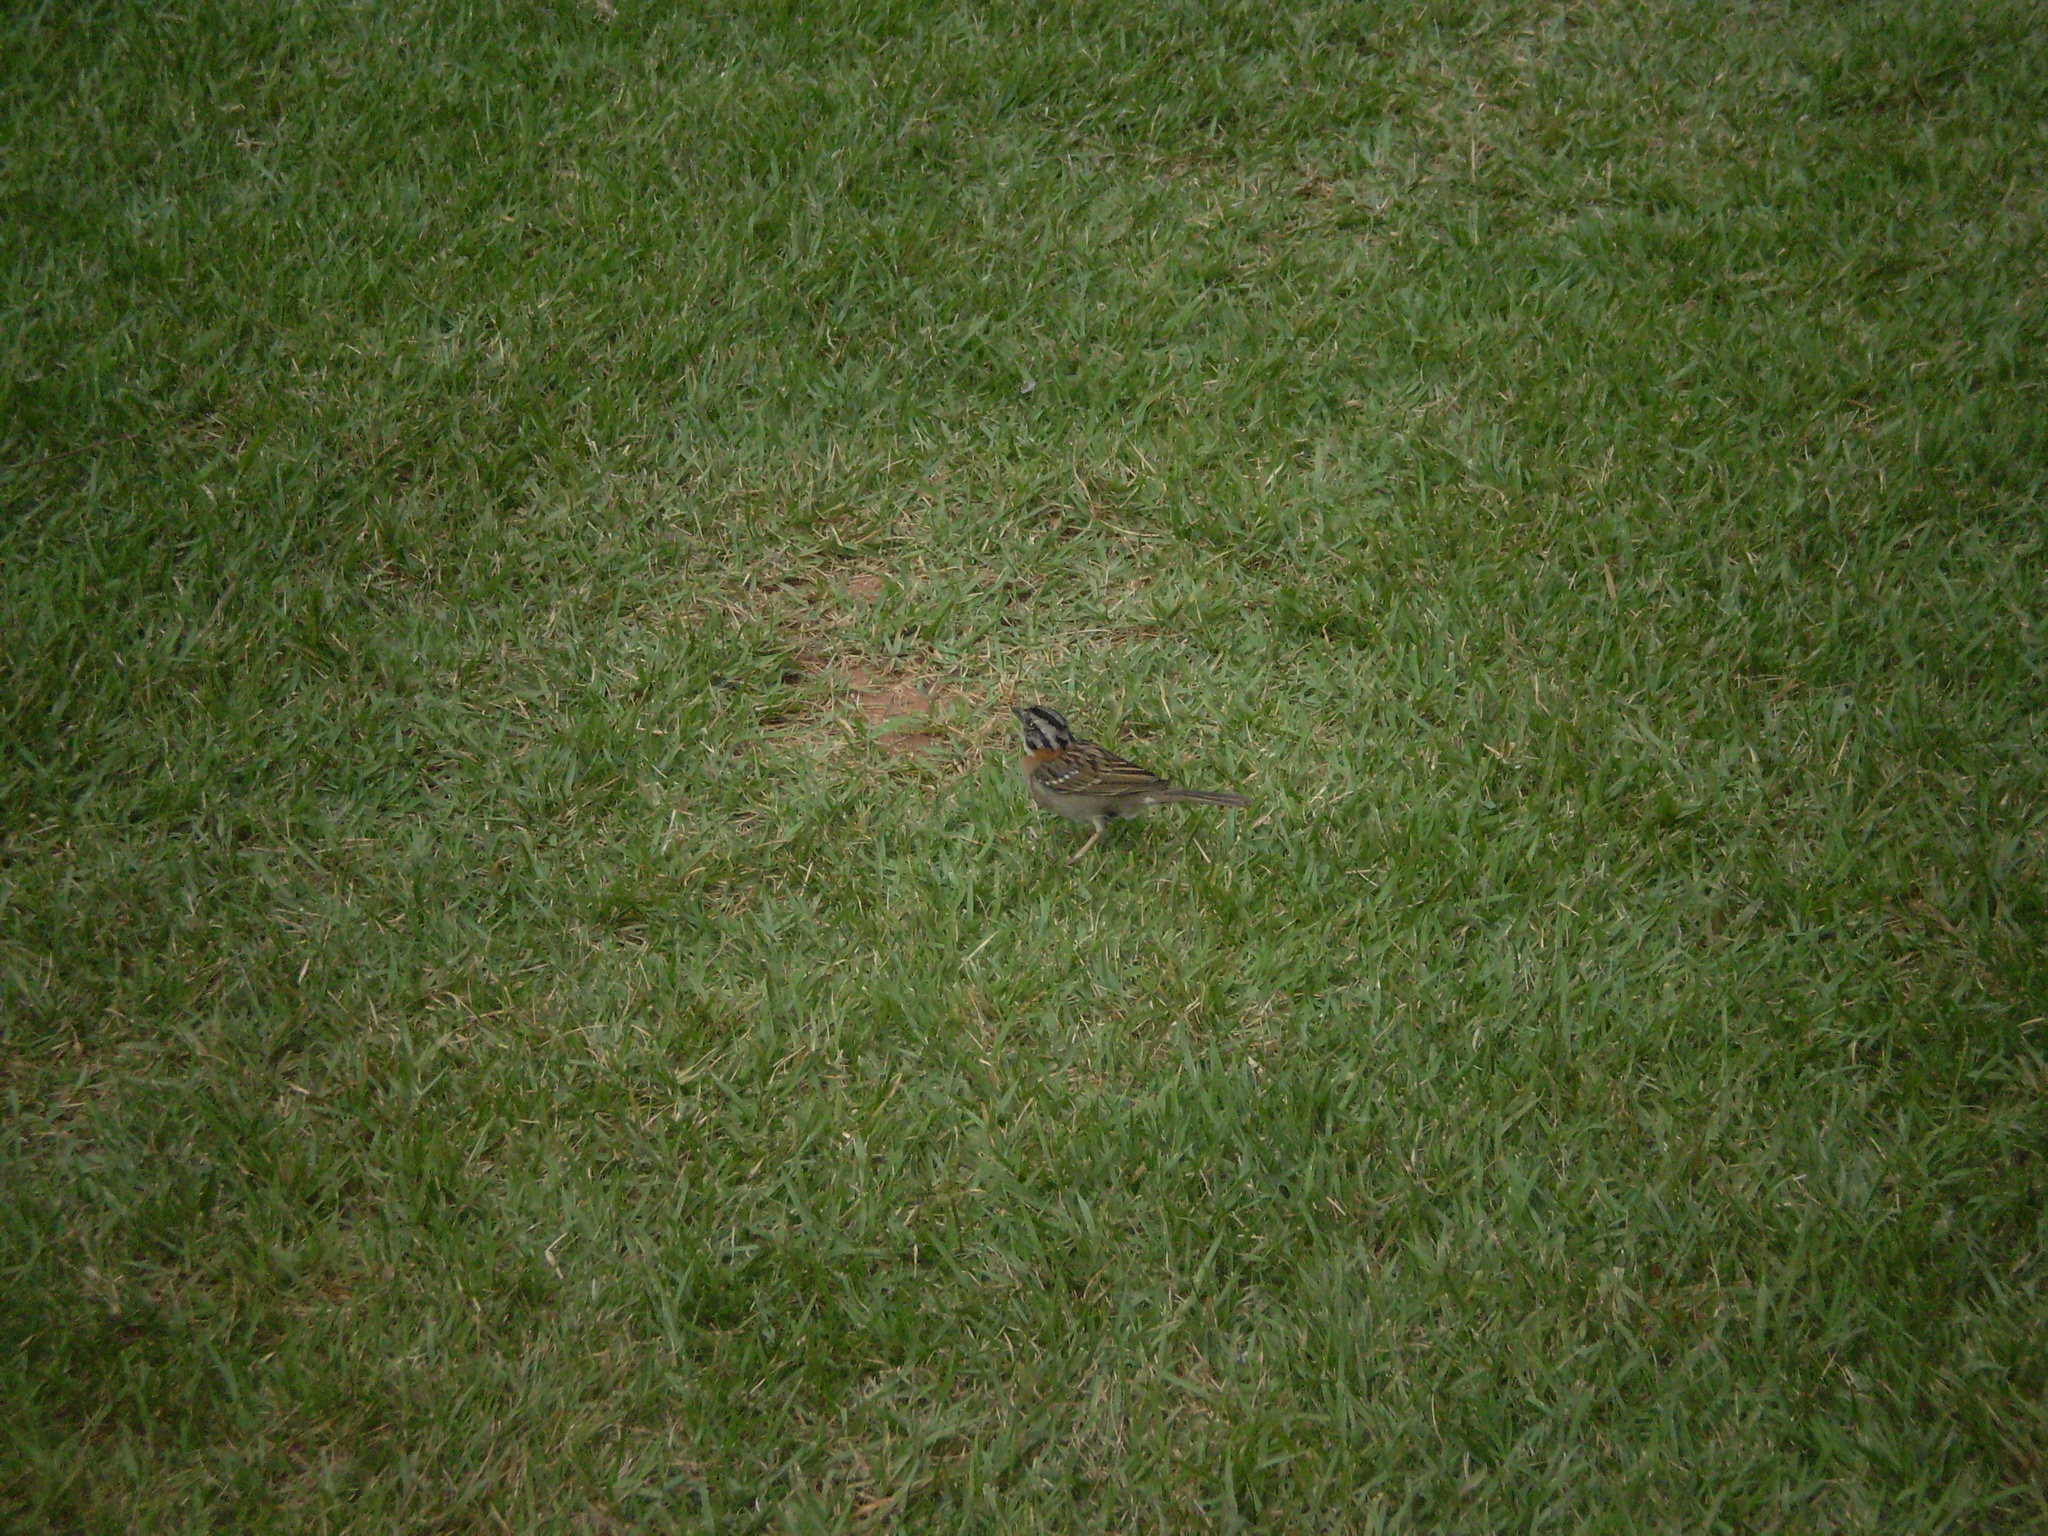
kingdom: Animalia
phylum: Chordata
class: Aves
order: Passeriformes
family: Passerellidae
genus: Zonotrichia
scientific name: Zonotrichia capensis
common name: Rufous-collared sparrow
